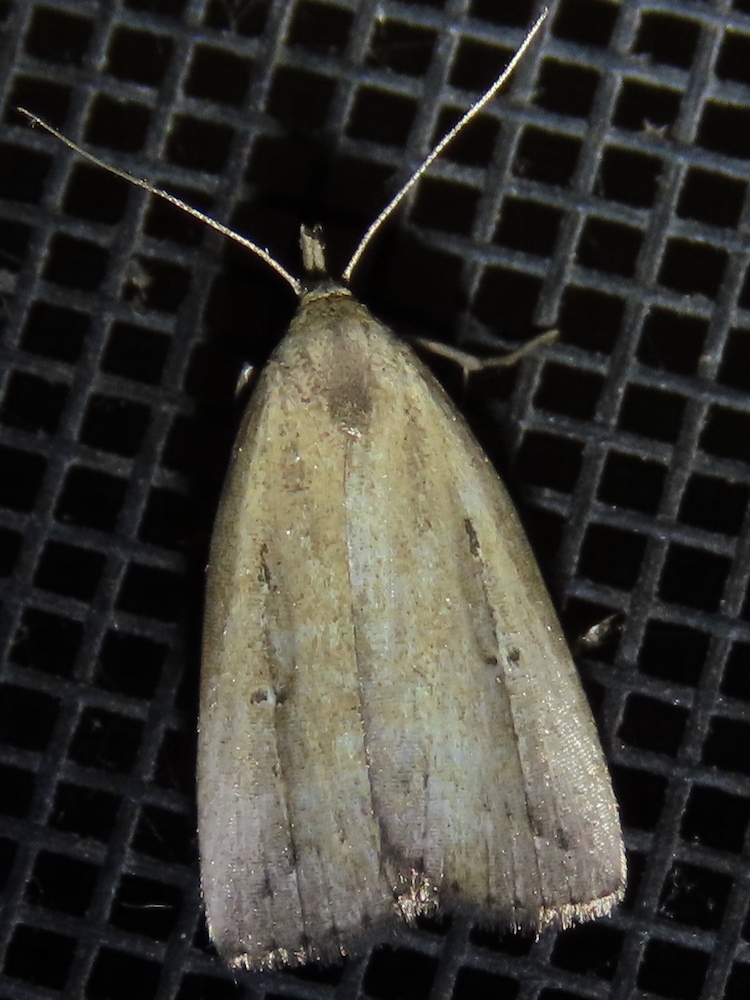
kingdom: Animalia
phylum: Arthropoda
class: Insecta
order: Lepidoptera
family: Erebidae
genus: Macrochilo
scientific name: Macrochilo orciferalis
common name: Bronzy owlet
